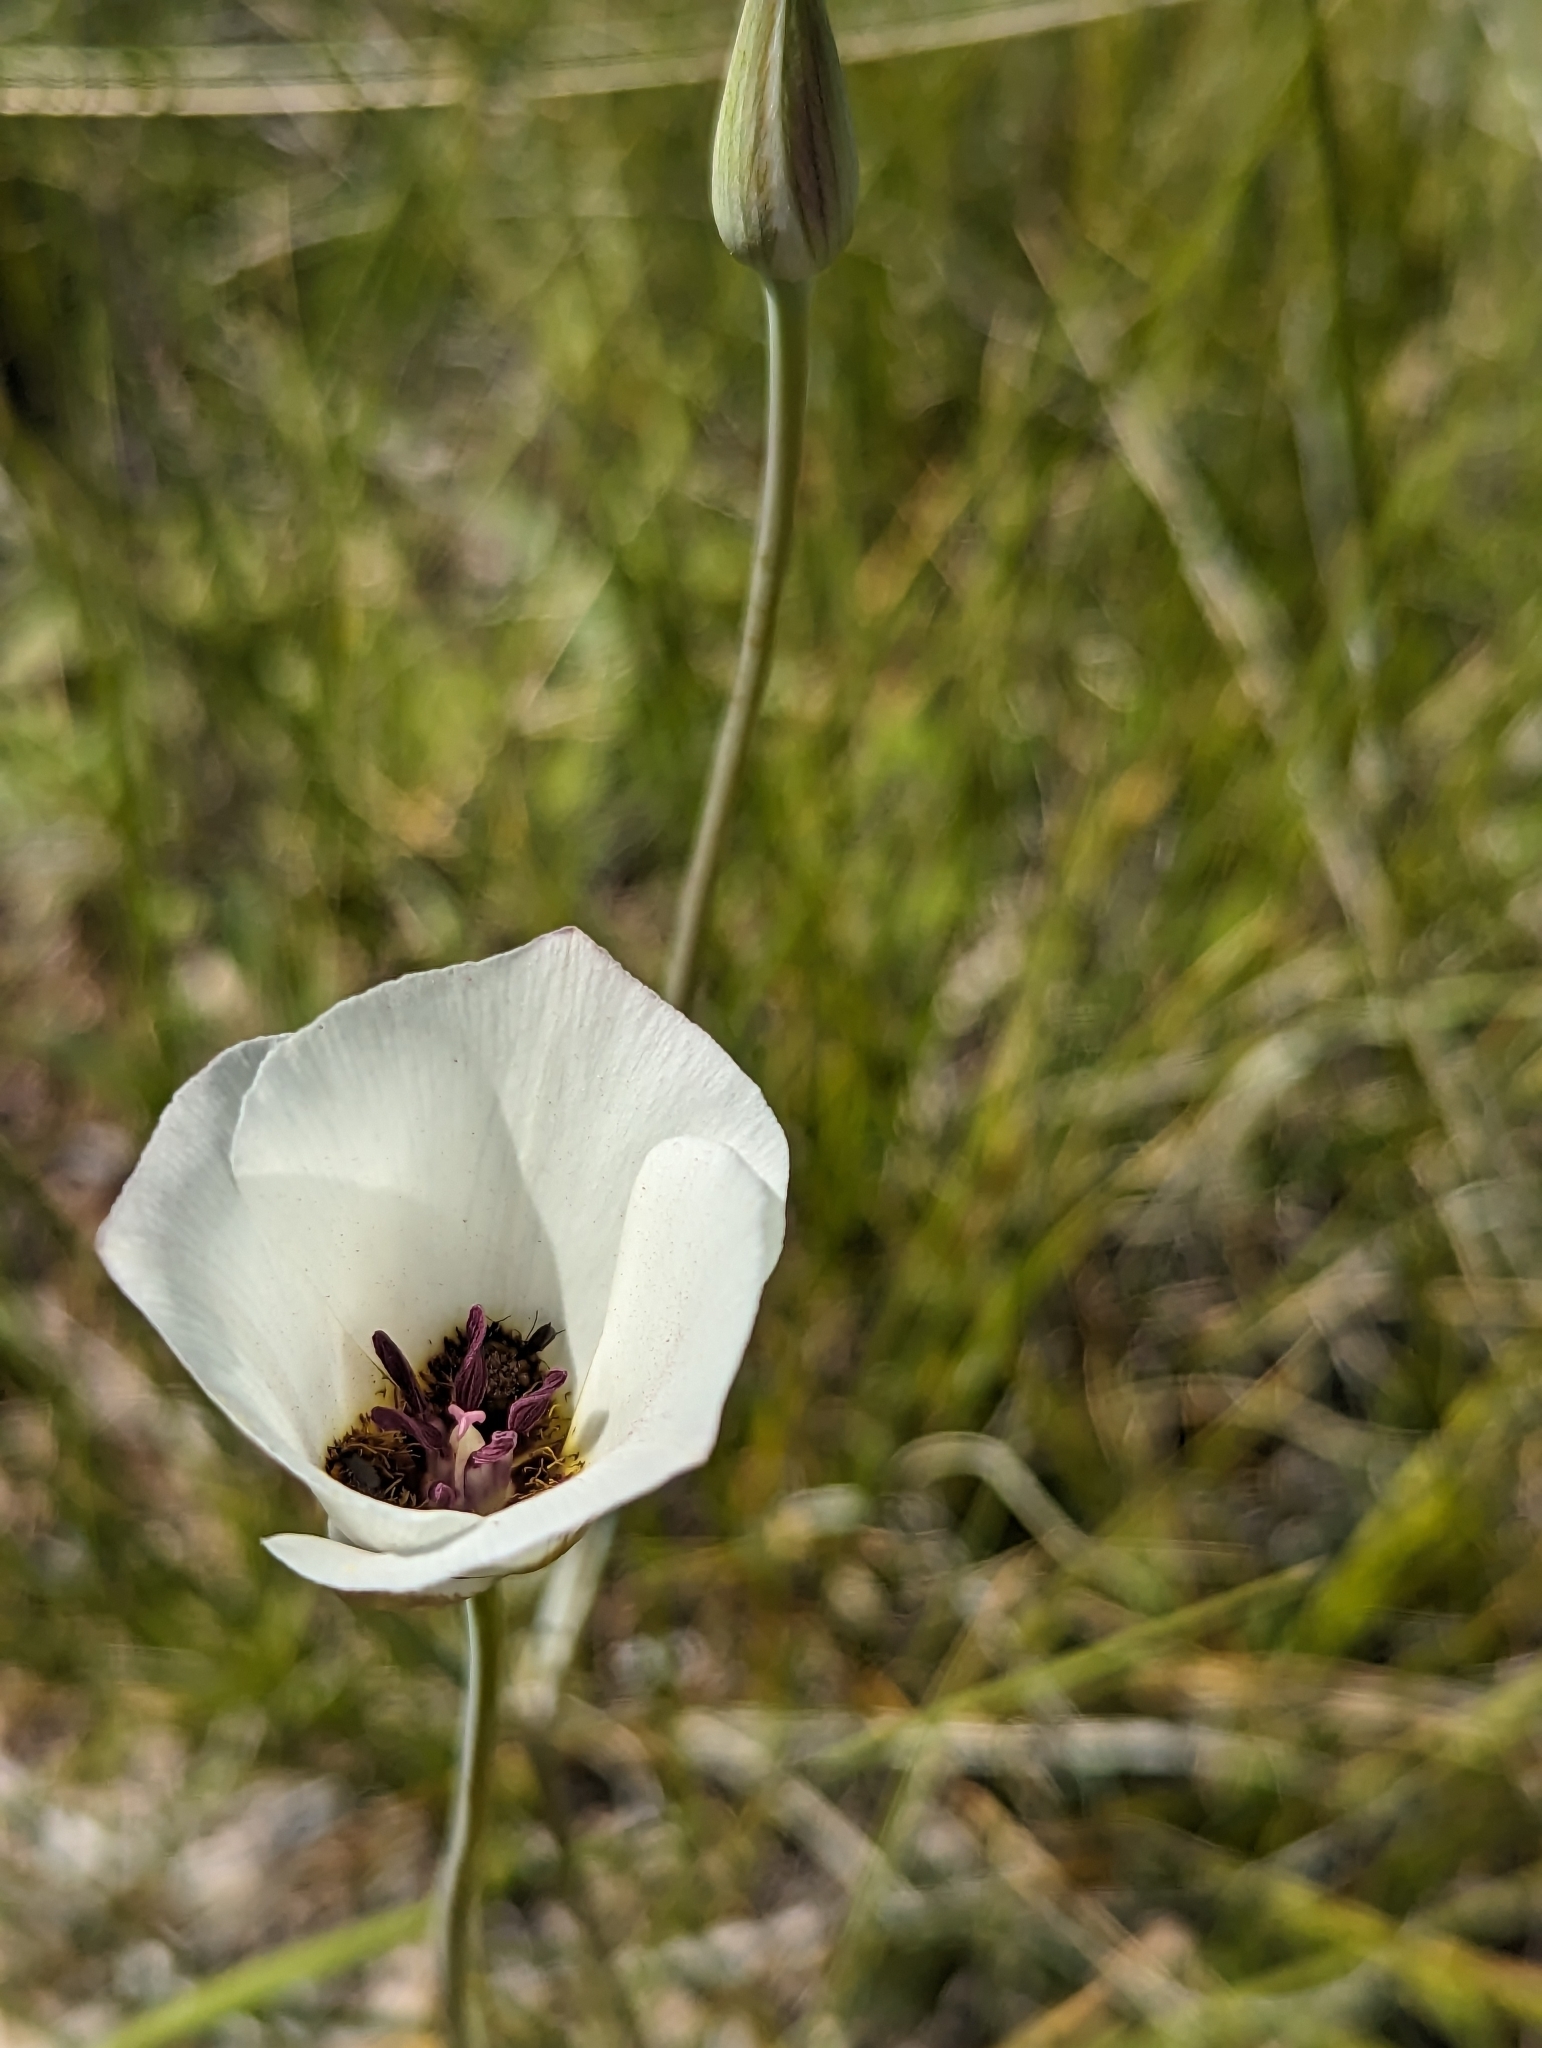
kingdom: Plantae
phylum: Tracheophyta
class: Liliopsida
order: Liliales
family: Liliaceae
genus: Calochortus
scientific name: Calochortus excavatus
